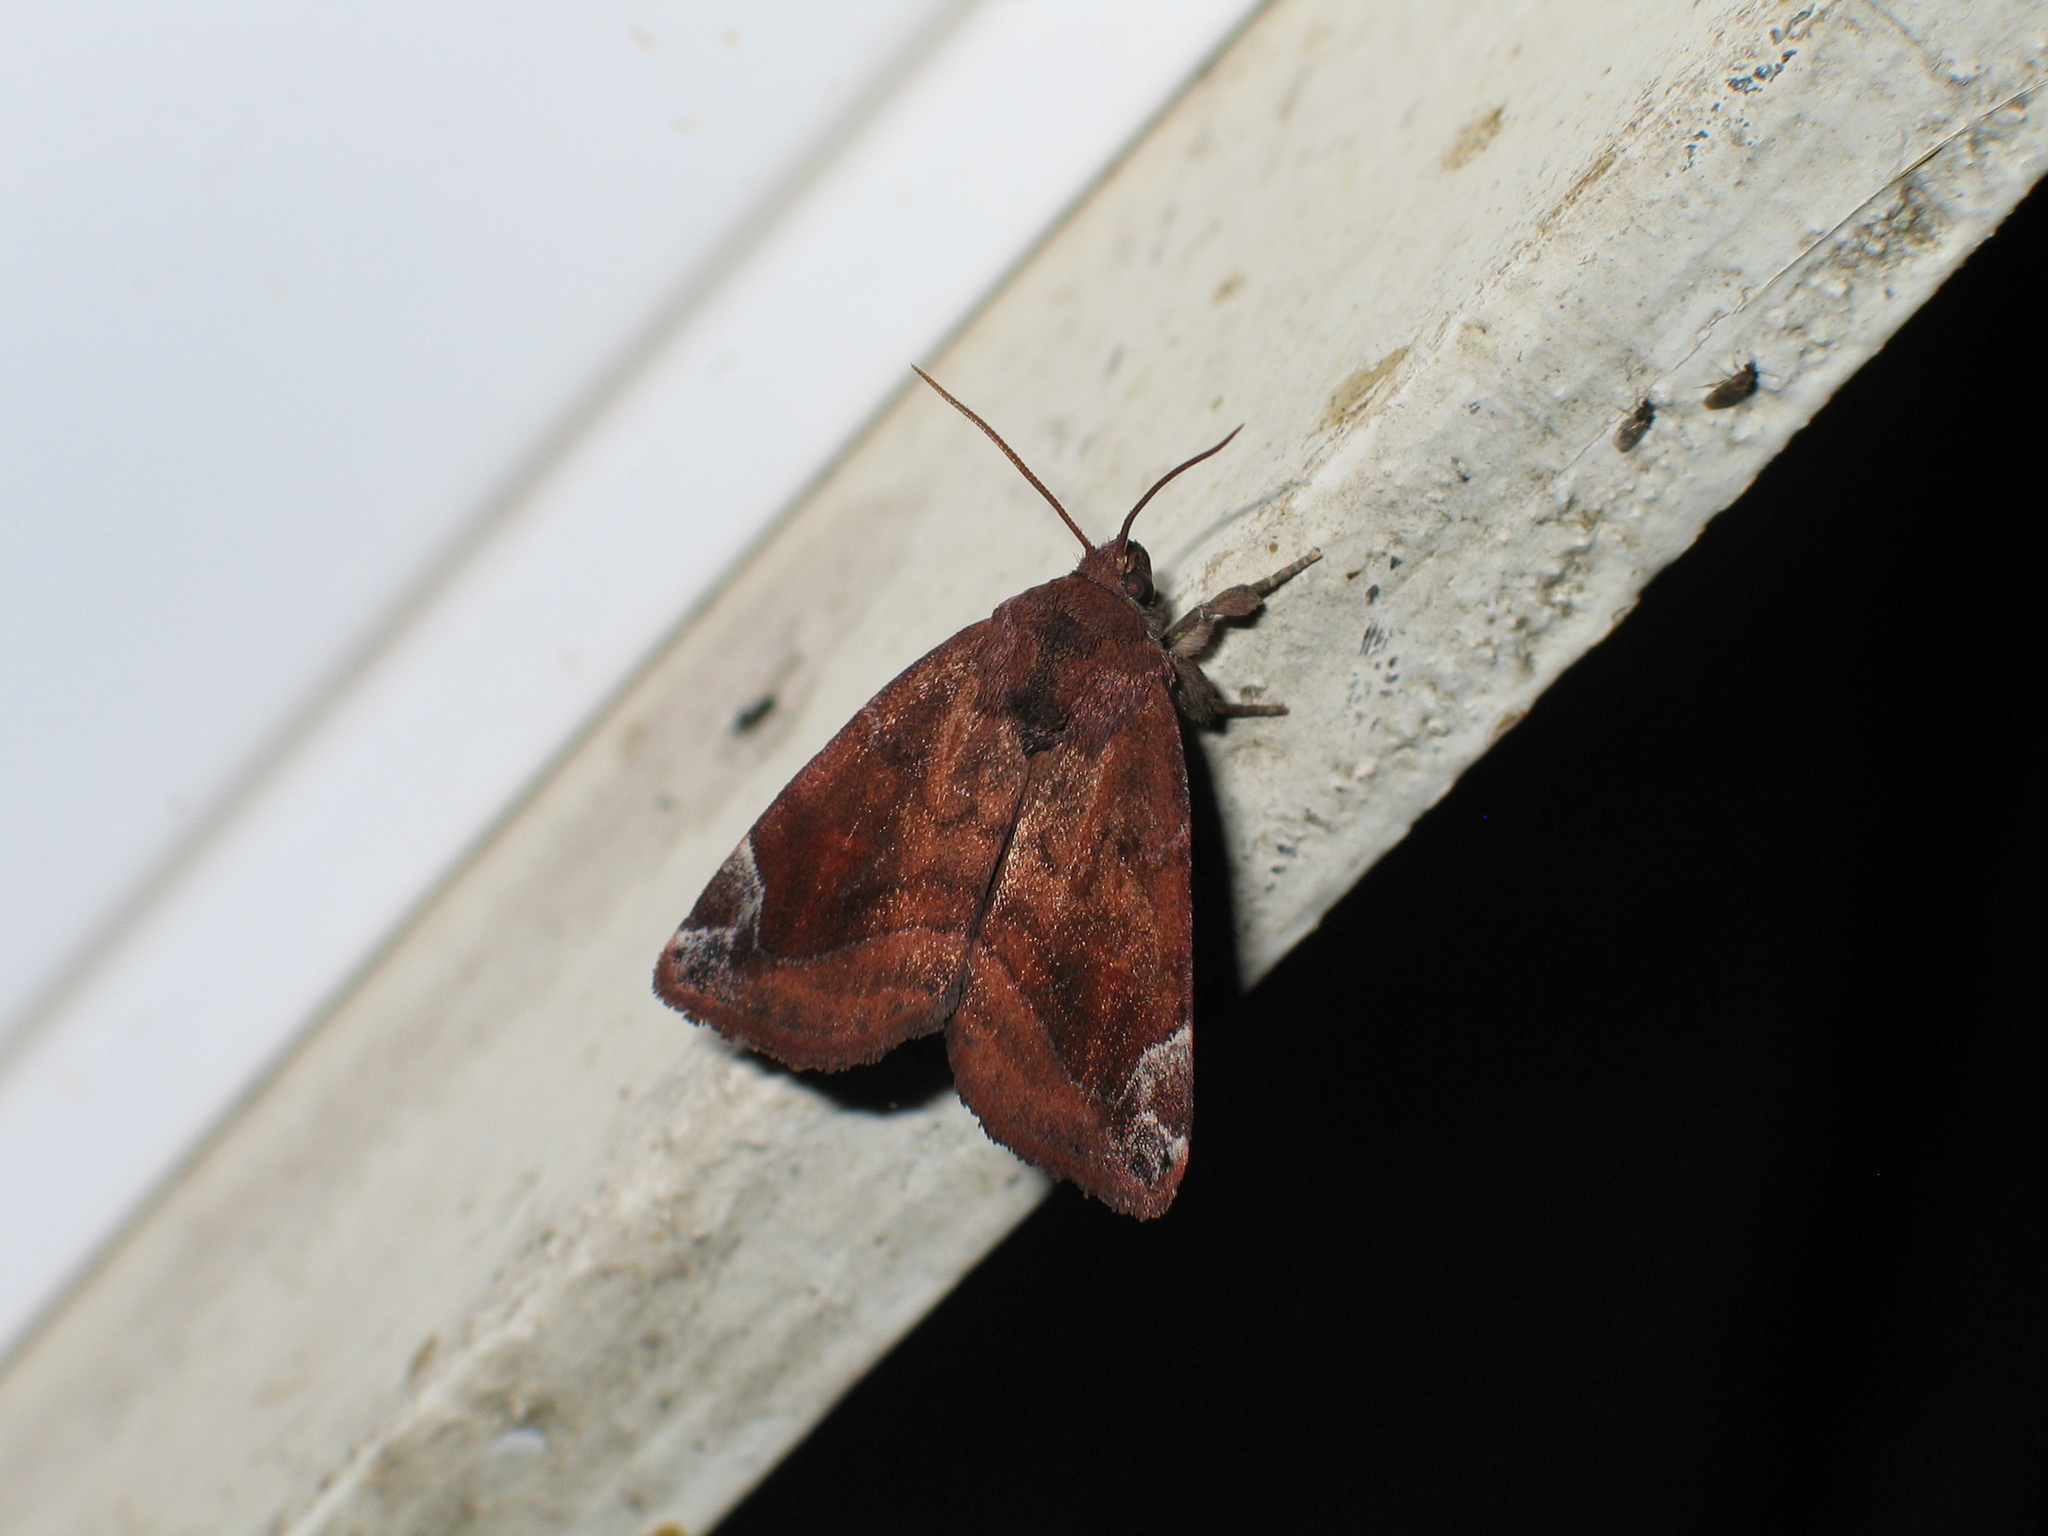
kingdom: Animalia
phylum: Arthropoda
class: Insecta
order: Lepidoptera
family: Noctuidae
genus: Cosmia
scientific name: Cosmia pyralina
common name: Lunar-spotted pinion
